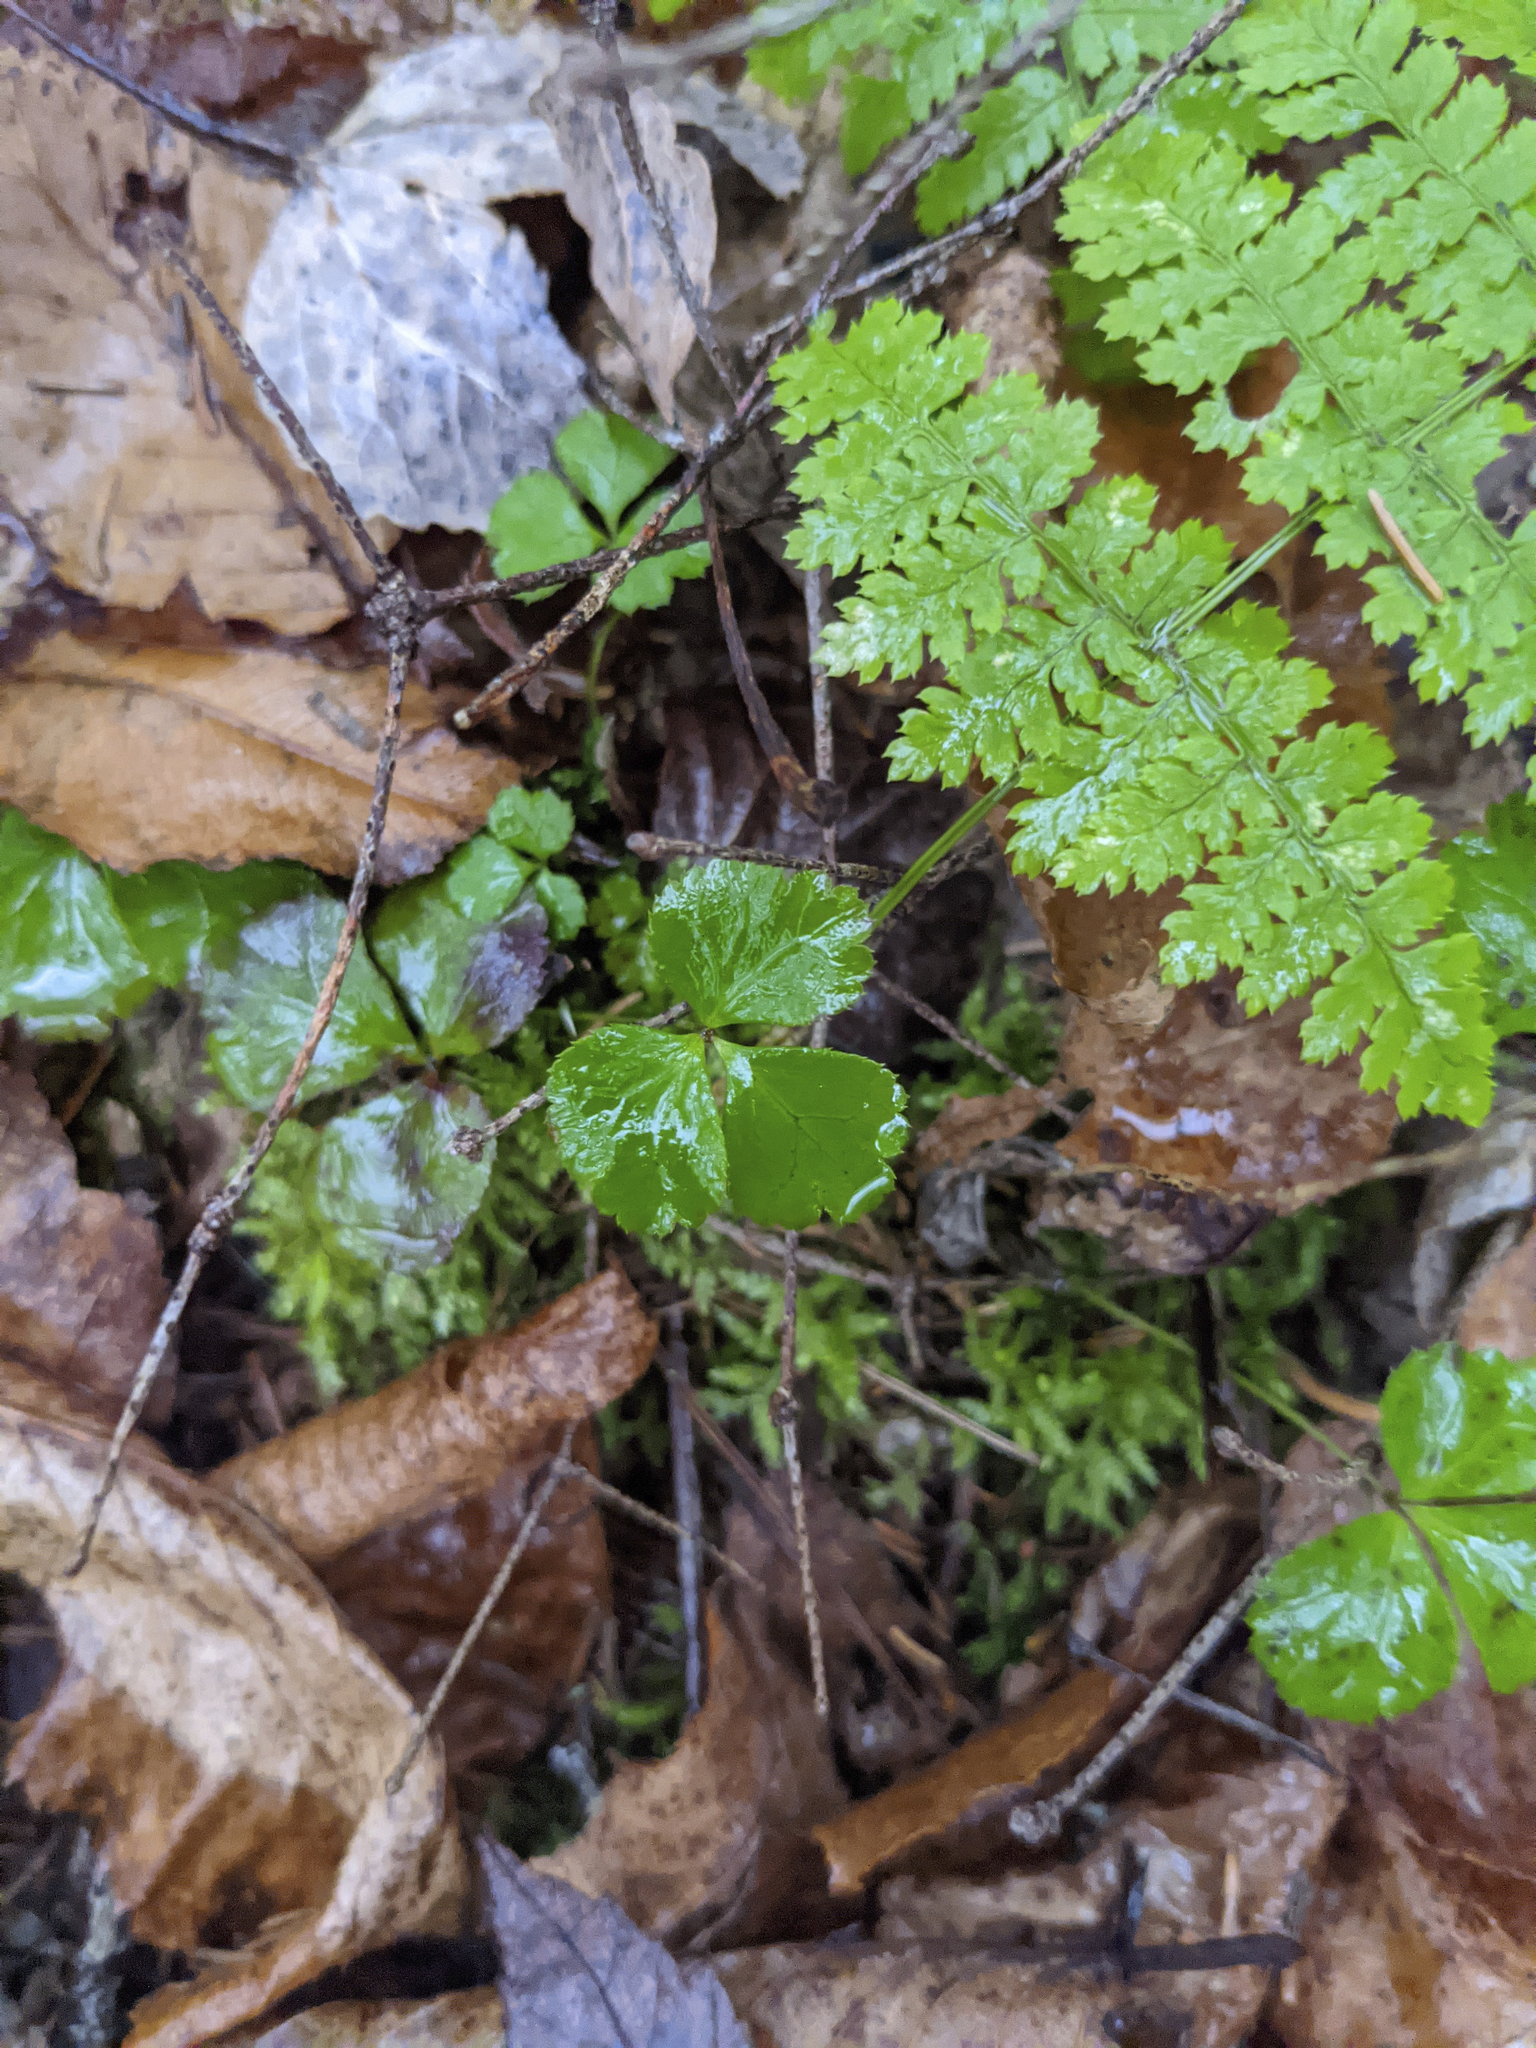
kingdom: Plantae
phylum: Tracheophyta
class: Magnoliopsida
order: Ranunculales
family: Ranunculaceae
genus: Coptis
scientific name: Coptis trifolia
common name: Canker-root
